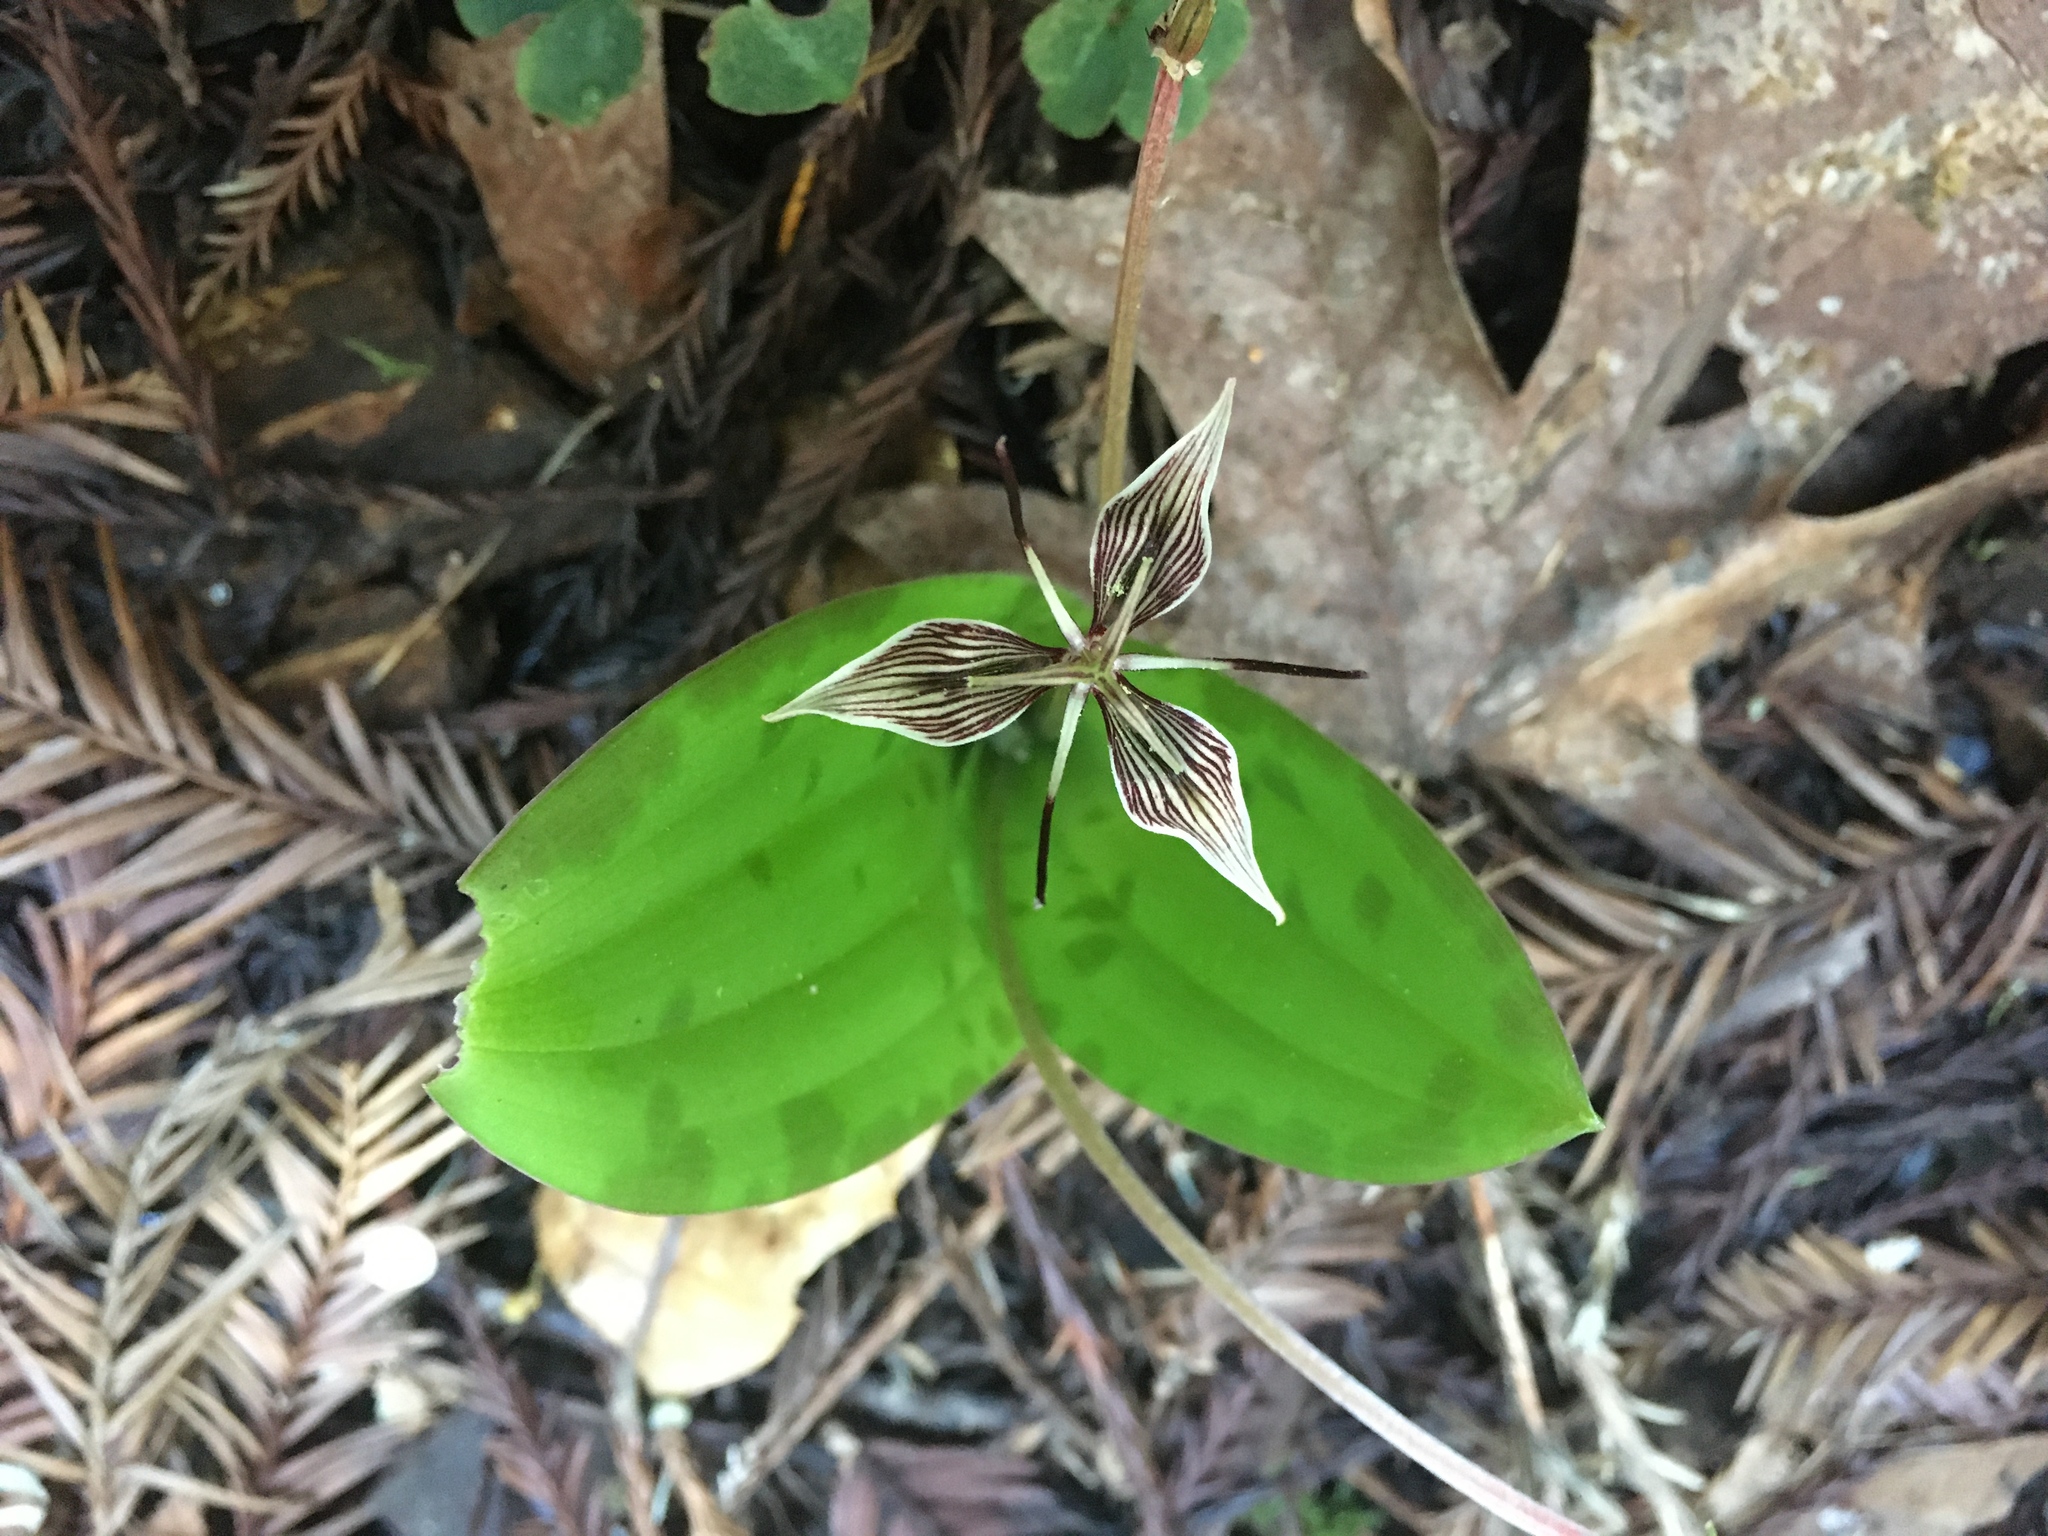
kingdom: Plantae
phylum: Tracheophyta
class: Liliopsida
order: Liliales
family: Liliaceae
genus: Scoliopus
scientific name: Scoliopus bigelovii
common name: Foetid adder's-tongue
